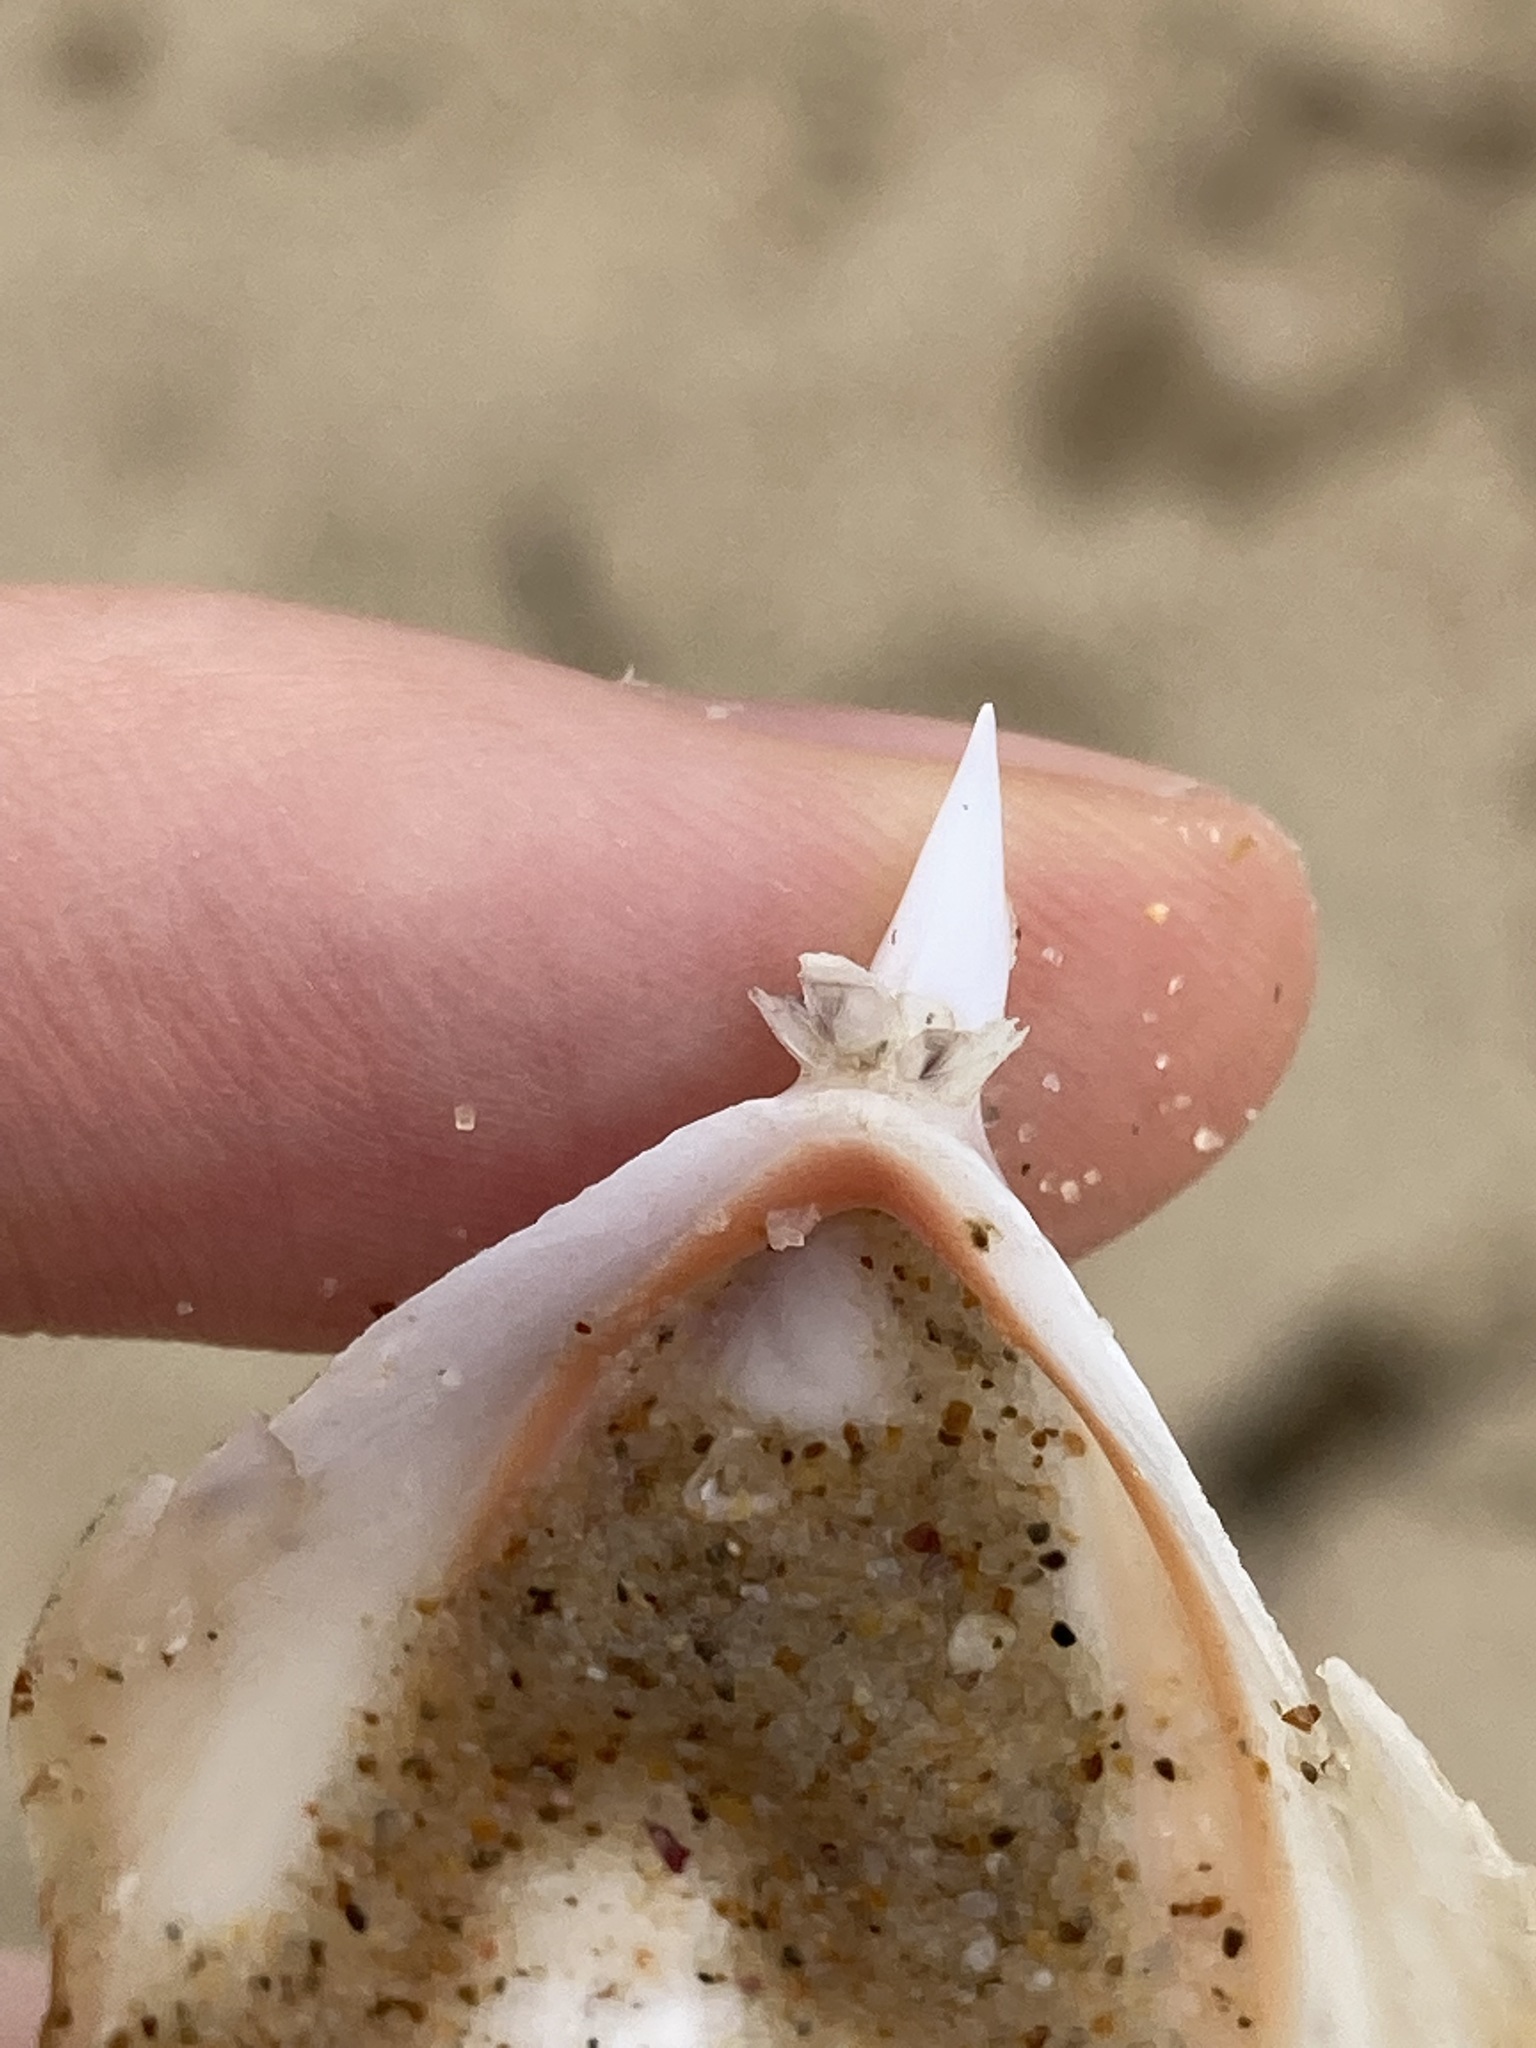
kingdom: Animalia
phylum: Arthropoda
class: Maxillopoda
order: Pedunculata
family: Lepadidae
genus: Lepas
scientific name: Lepas pectinata
